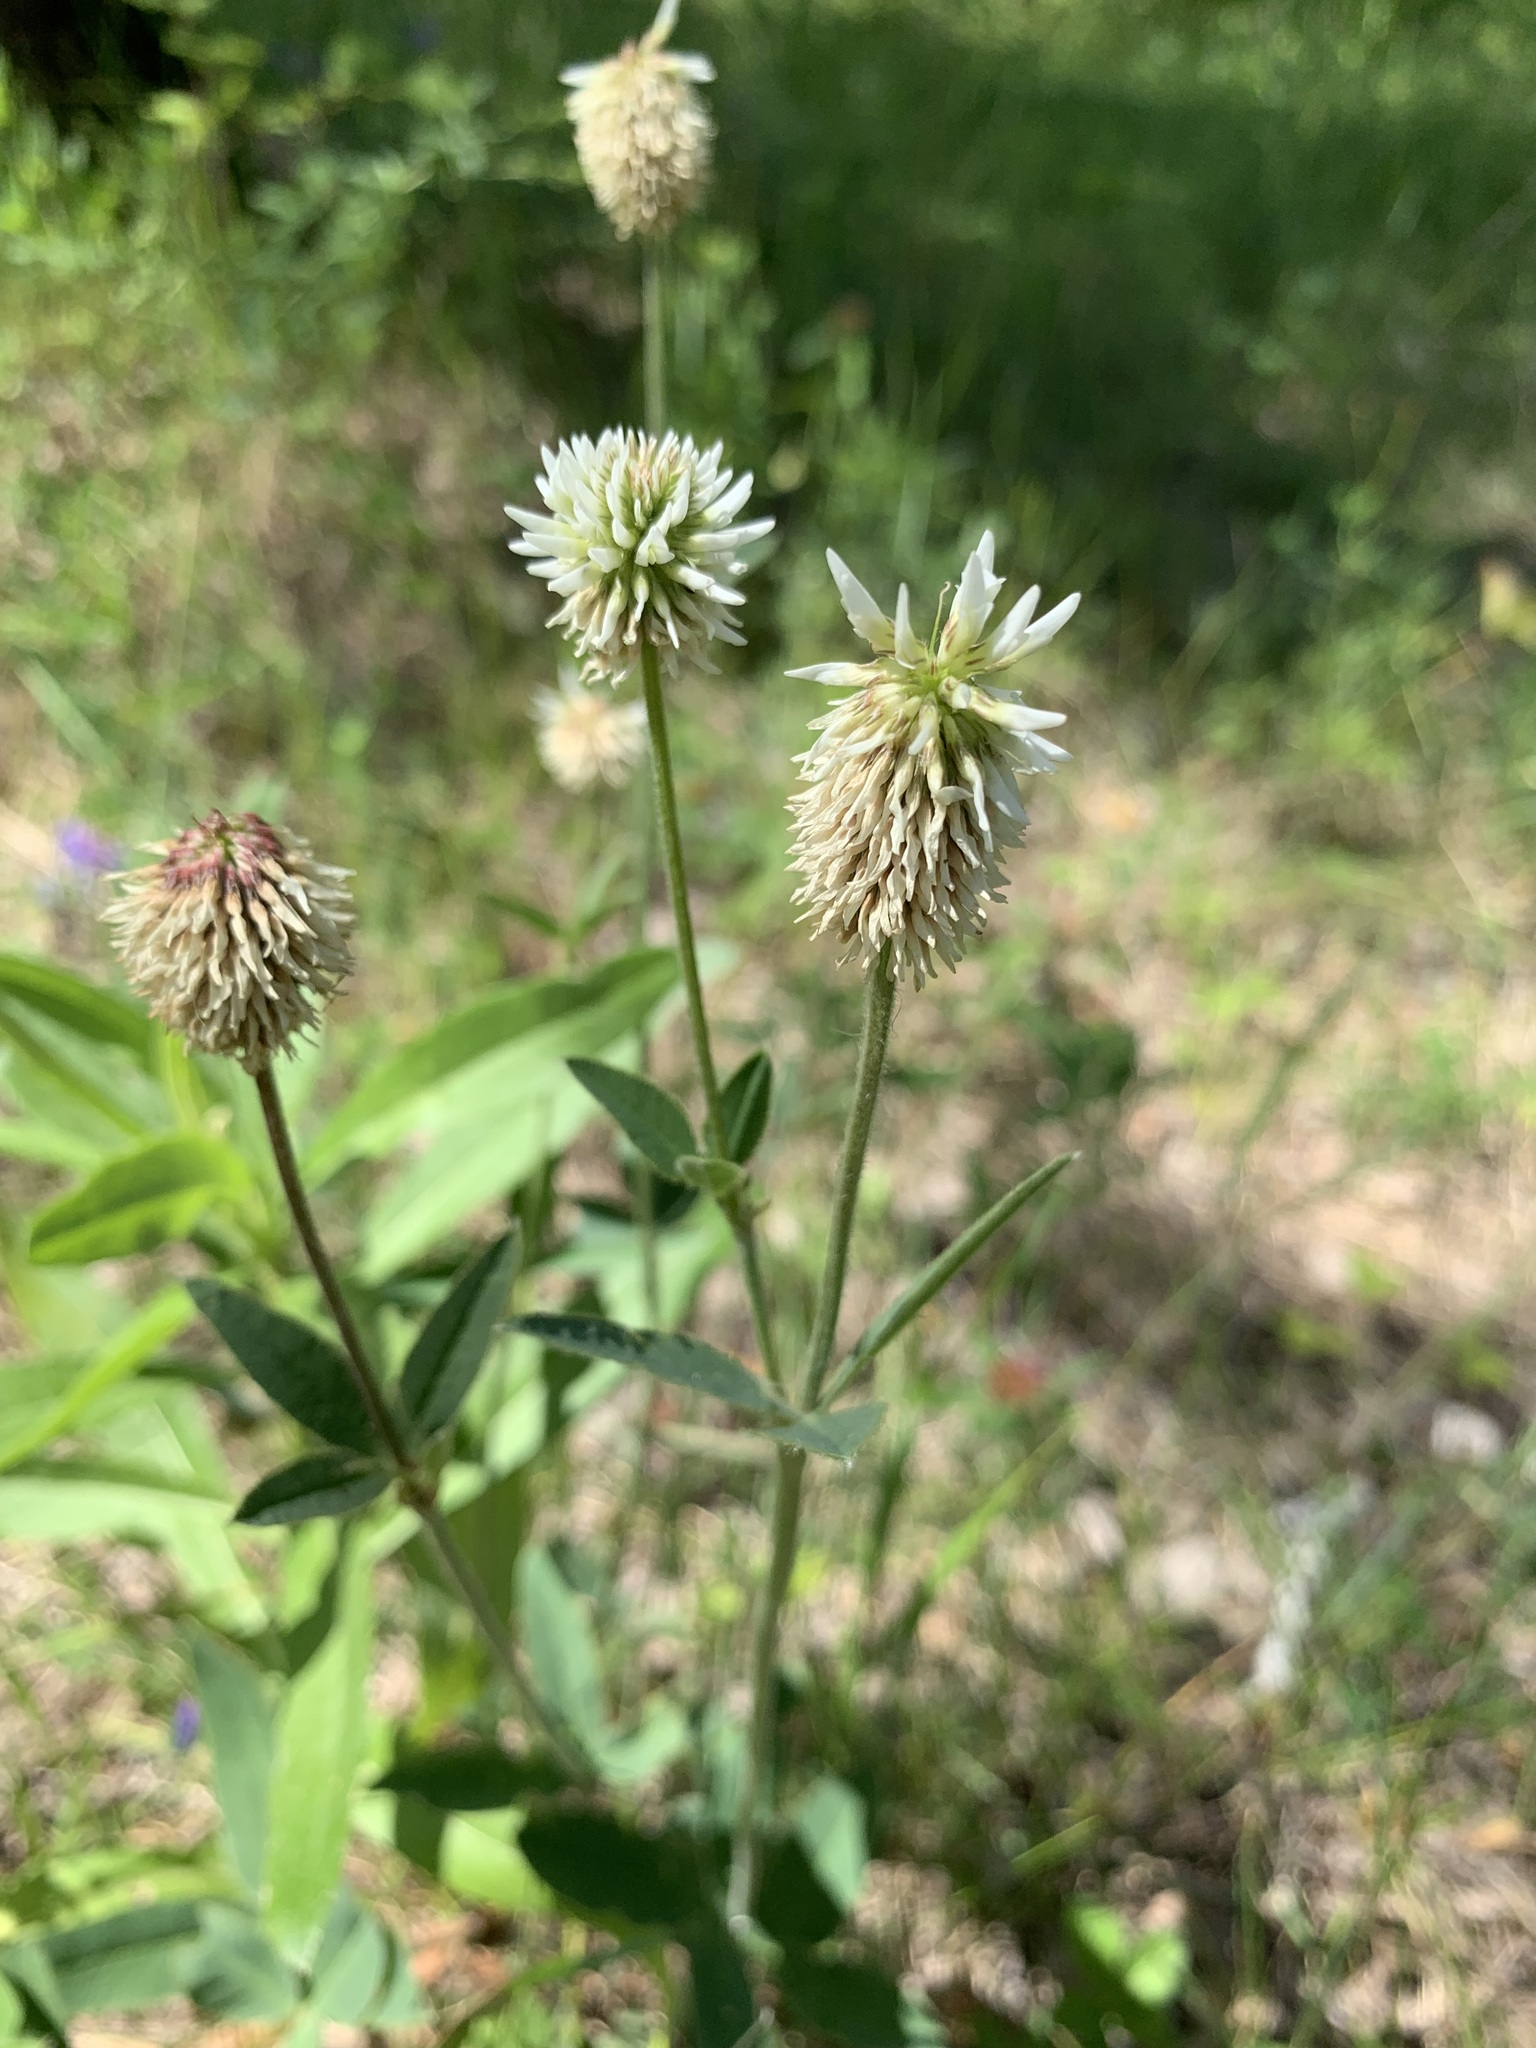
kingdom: Plantae
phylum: Tracheophyta
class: Magnoliopsida
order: Fabales
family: Fabaceae
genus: Trifolium
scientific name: Trifolium montanum
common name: Mountain clover
